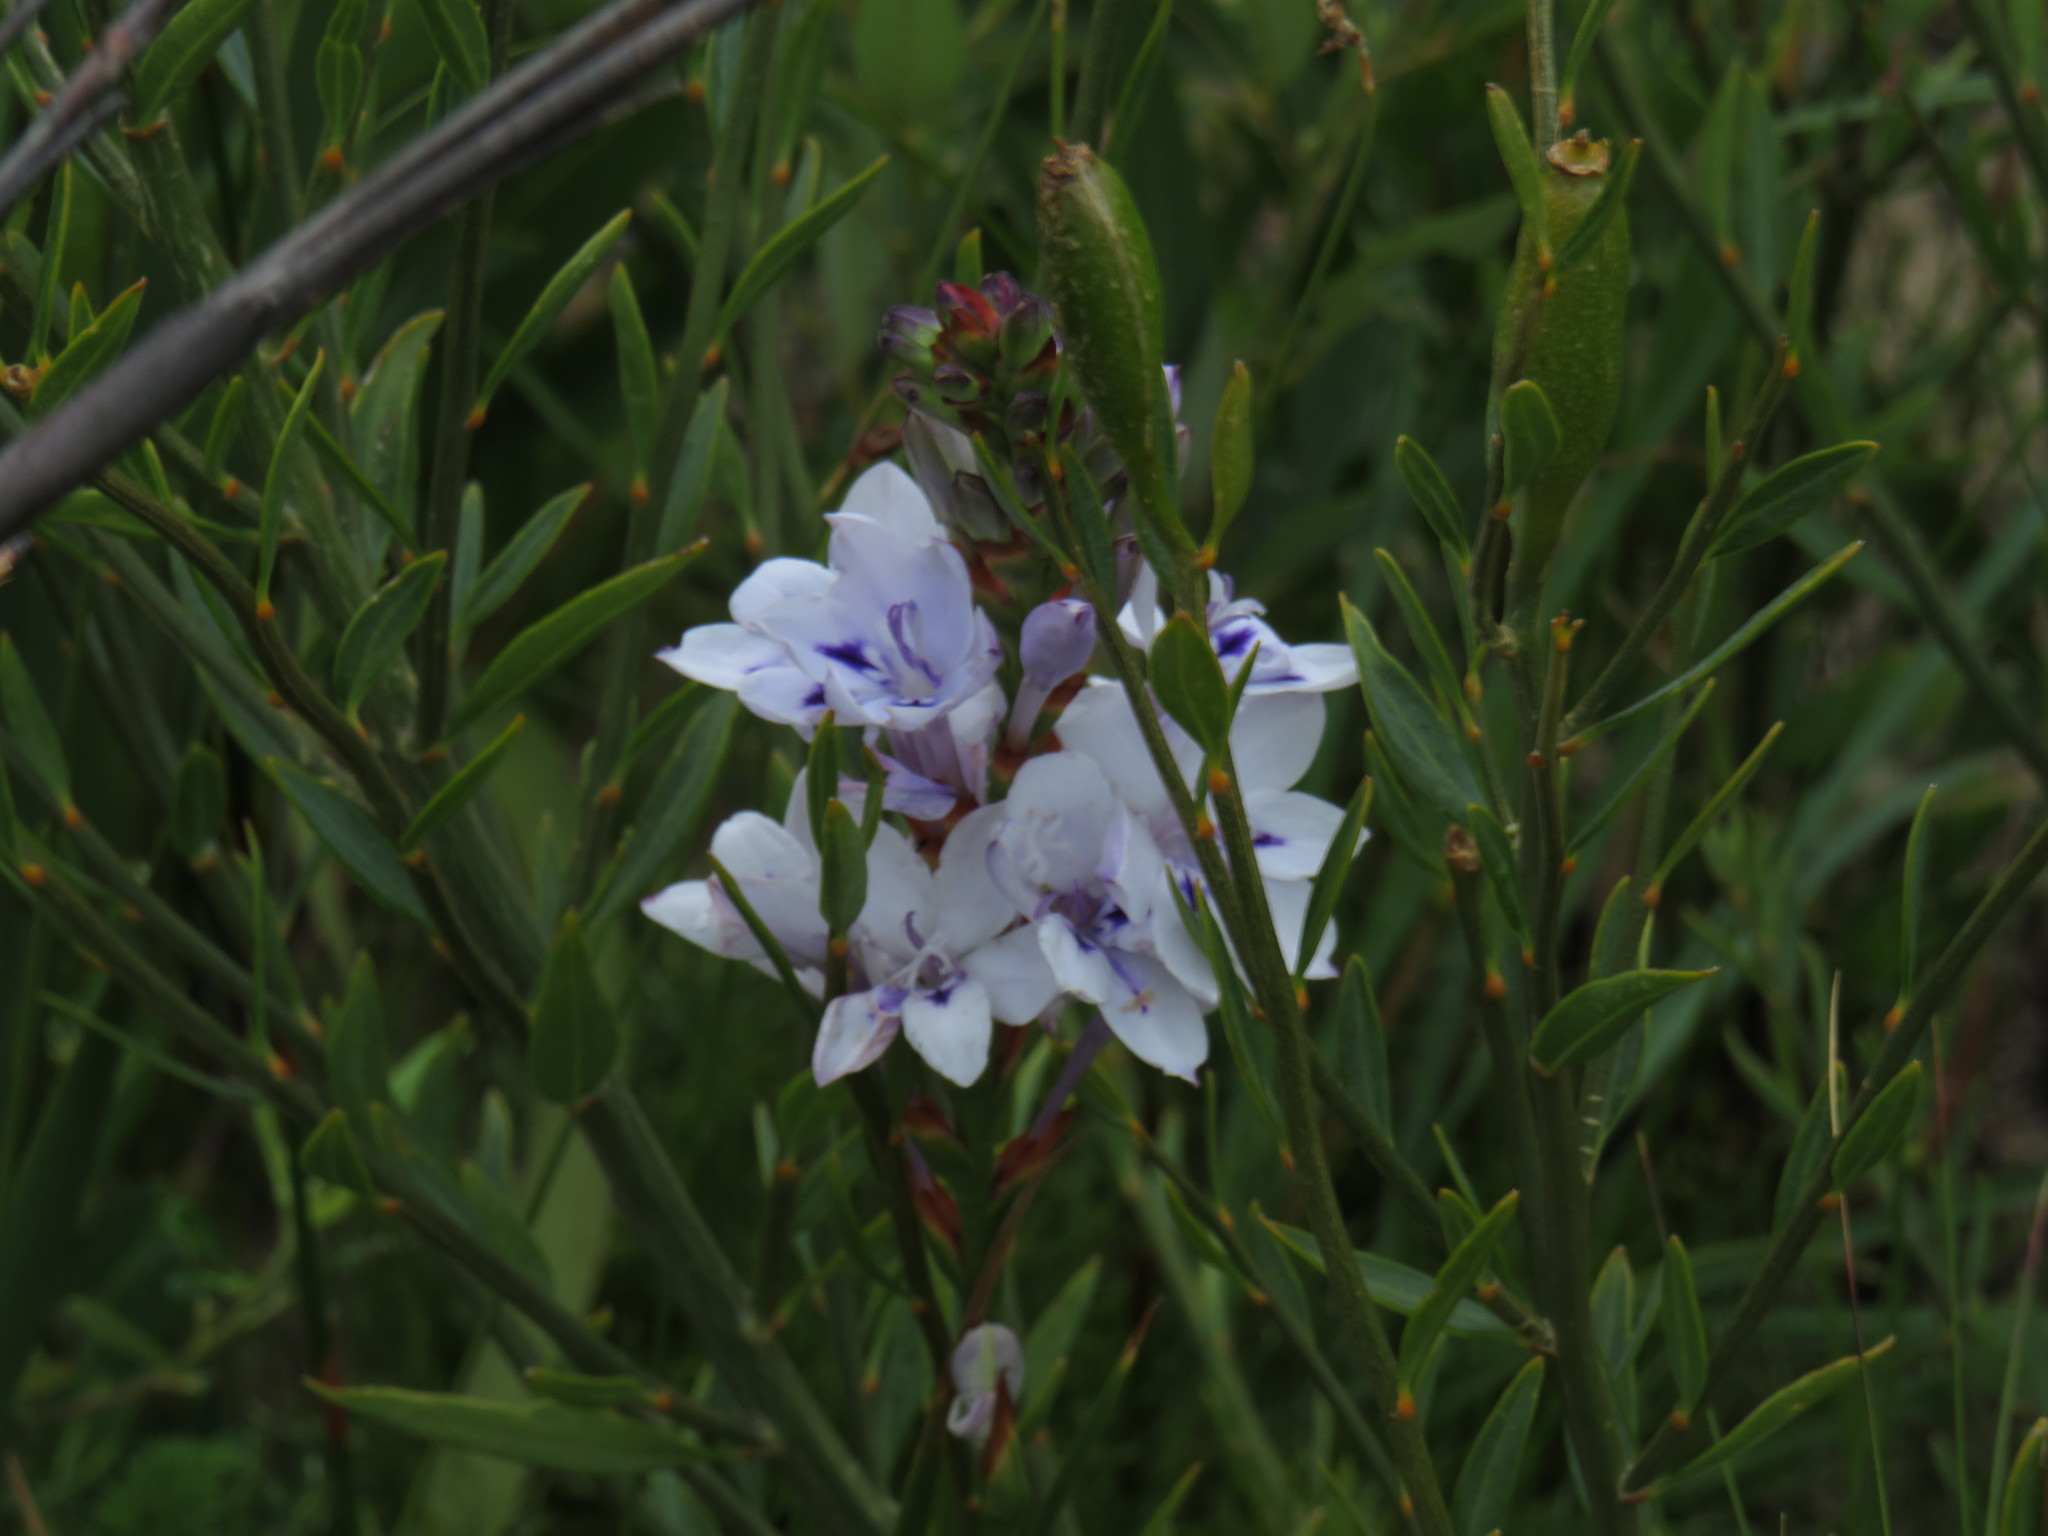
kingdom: Plantae
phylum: Tracheophyta
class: Liliopsida
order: Asparagales
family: Iridaceae
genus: Thereianthus
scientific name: Thereianthus spicatus
